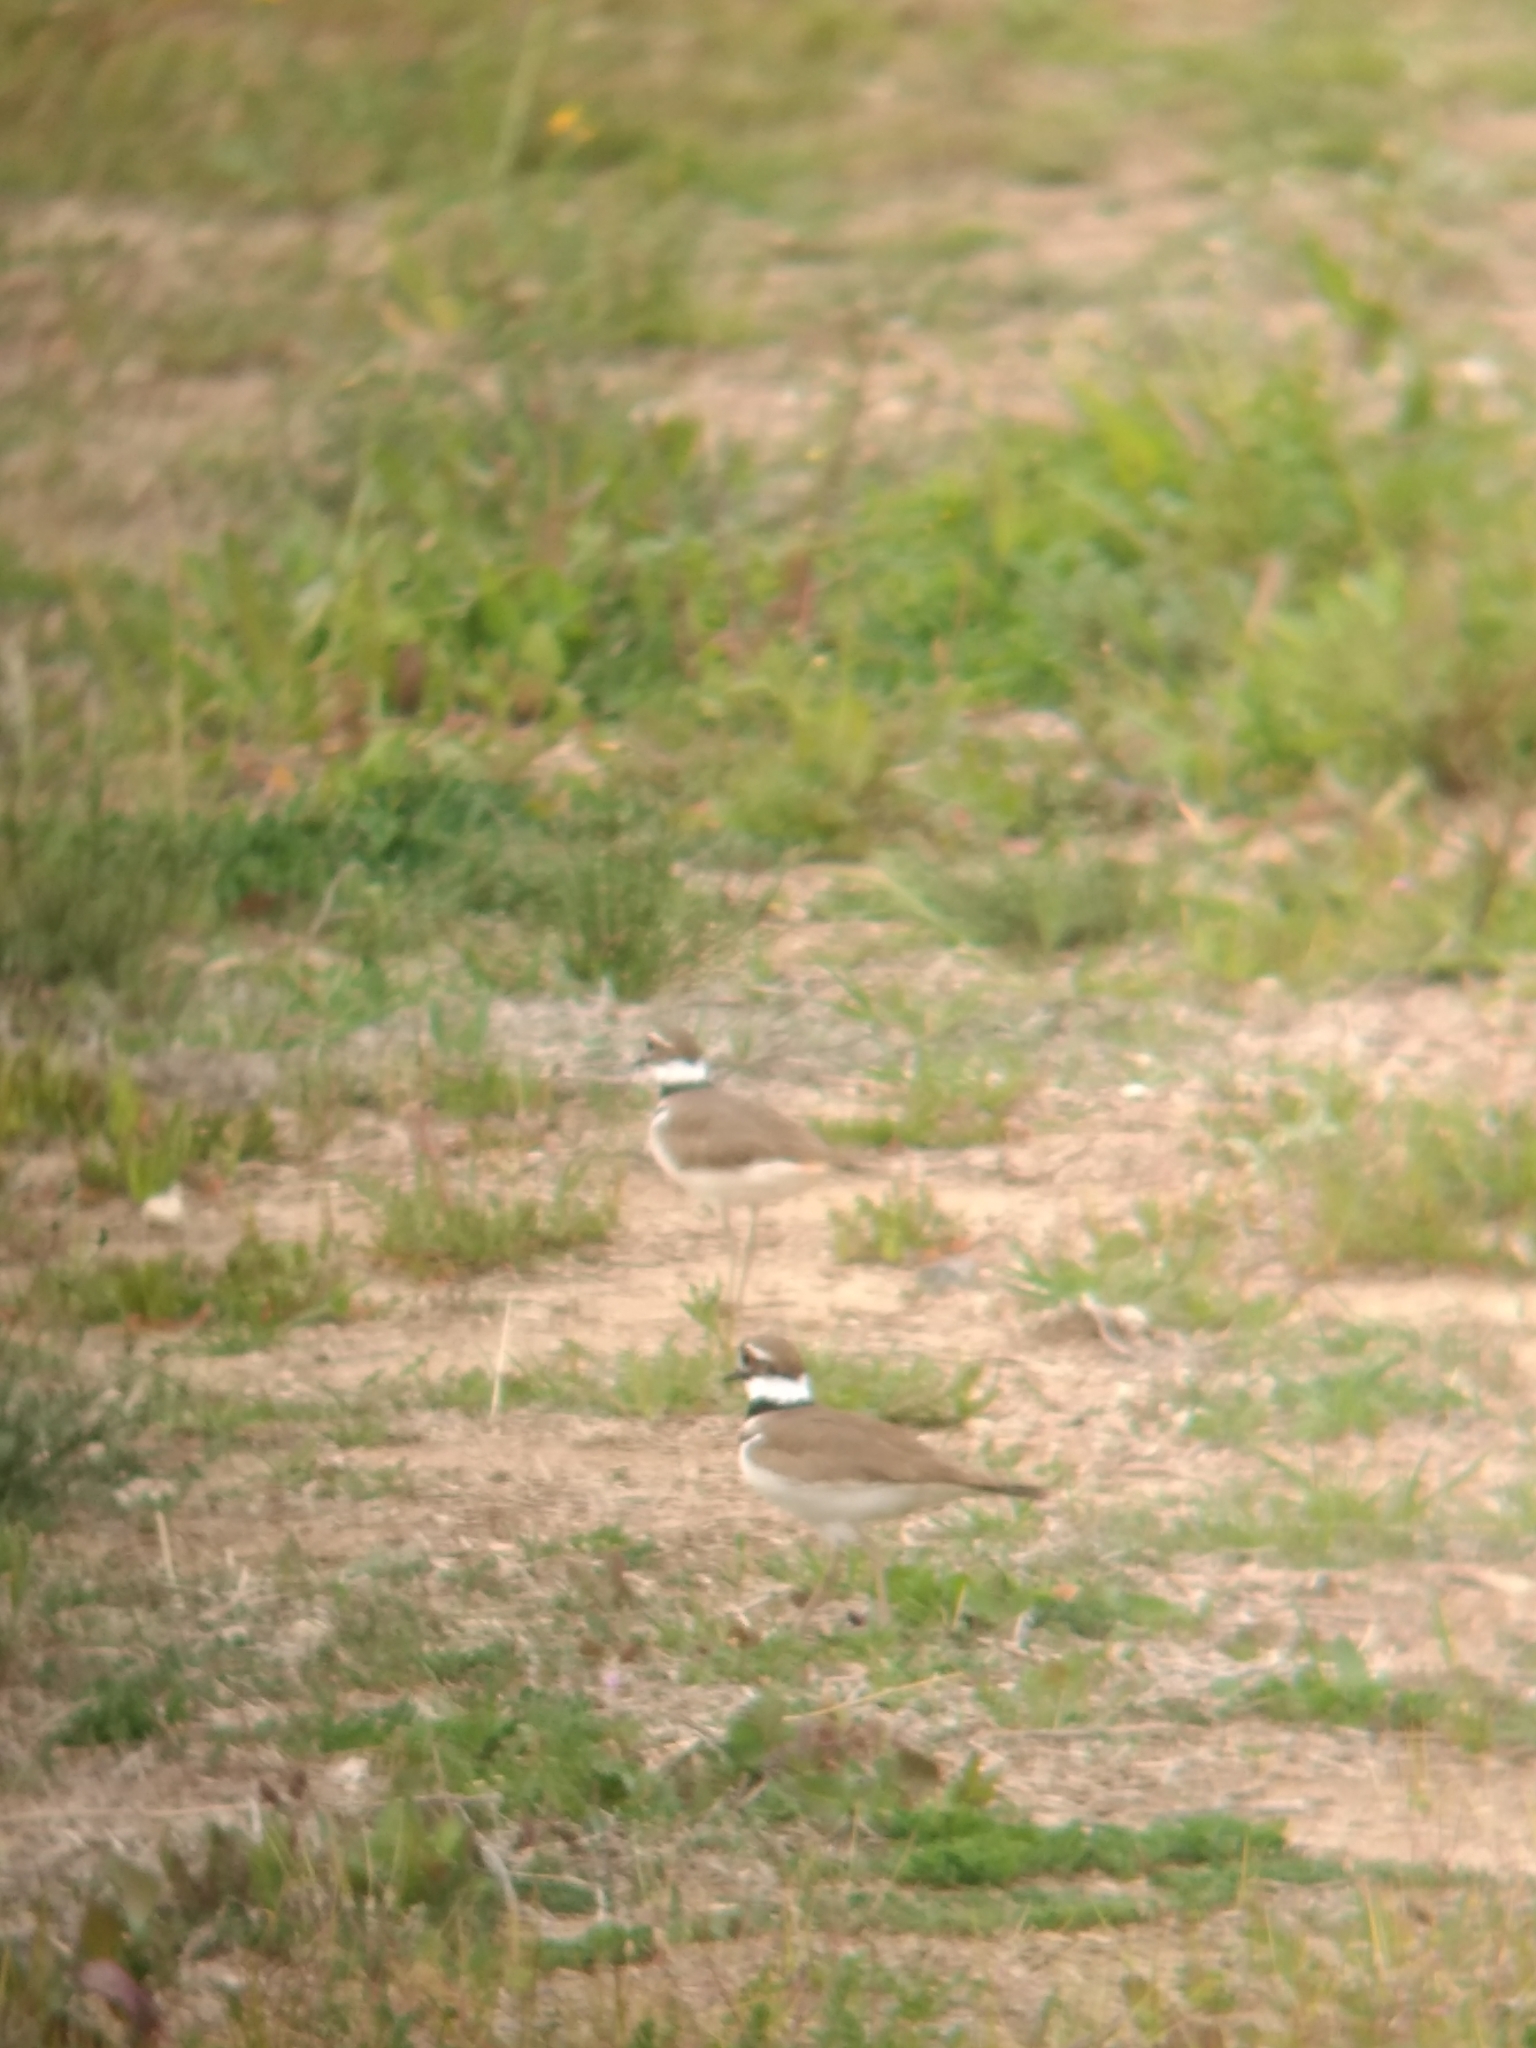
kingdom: Animalia
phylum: Chordata
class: Aves
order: Charadriiformes
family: Charadriidae
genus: Charadrius
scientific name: Charadrius vociferus
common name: Killdeer
